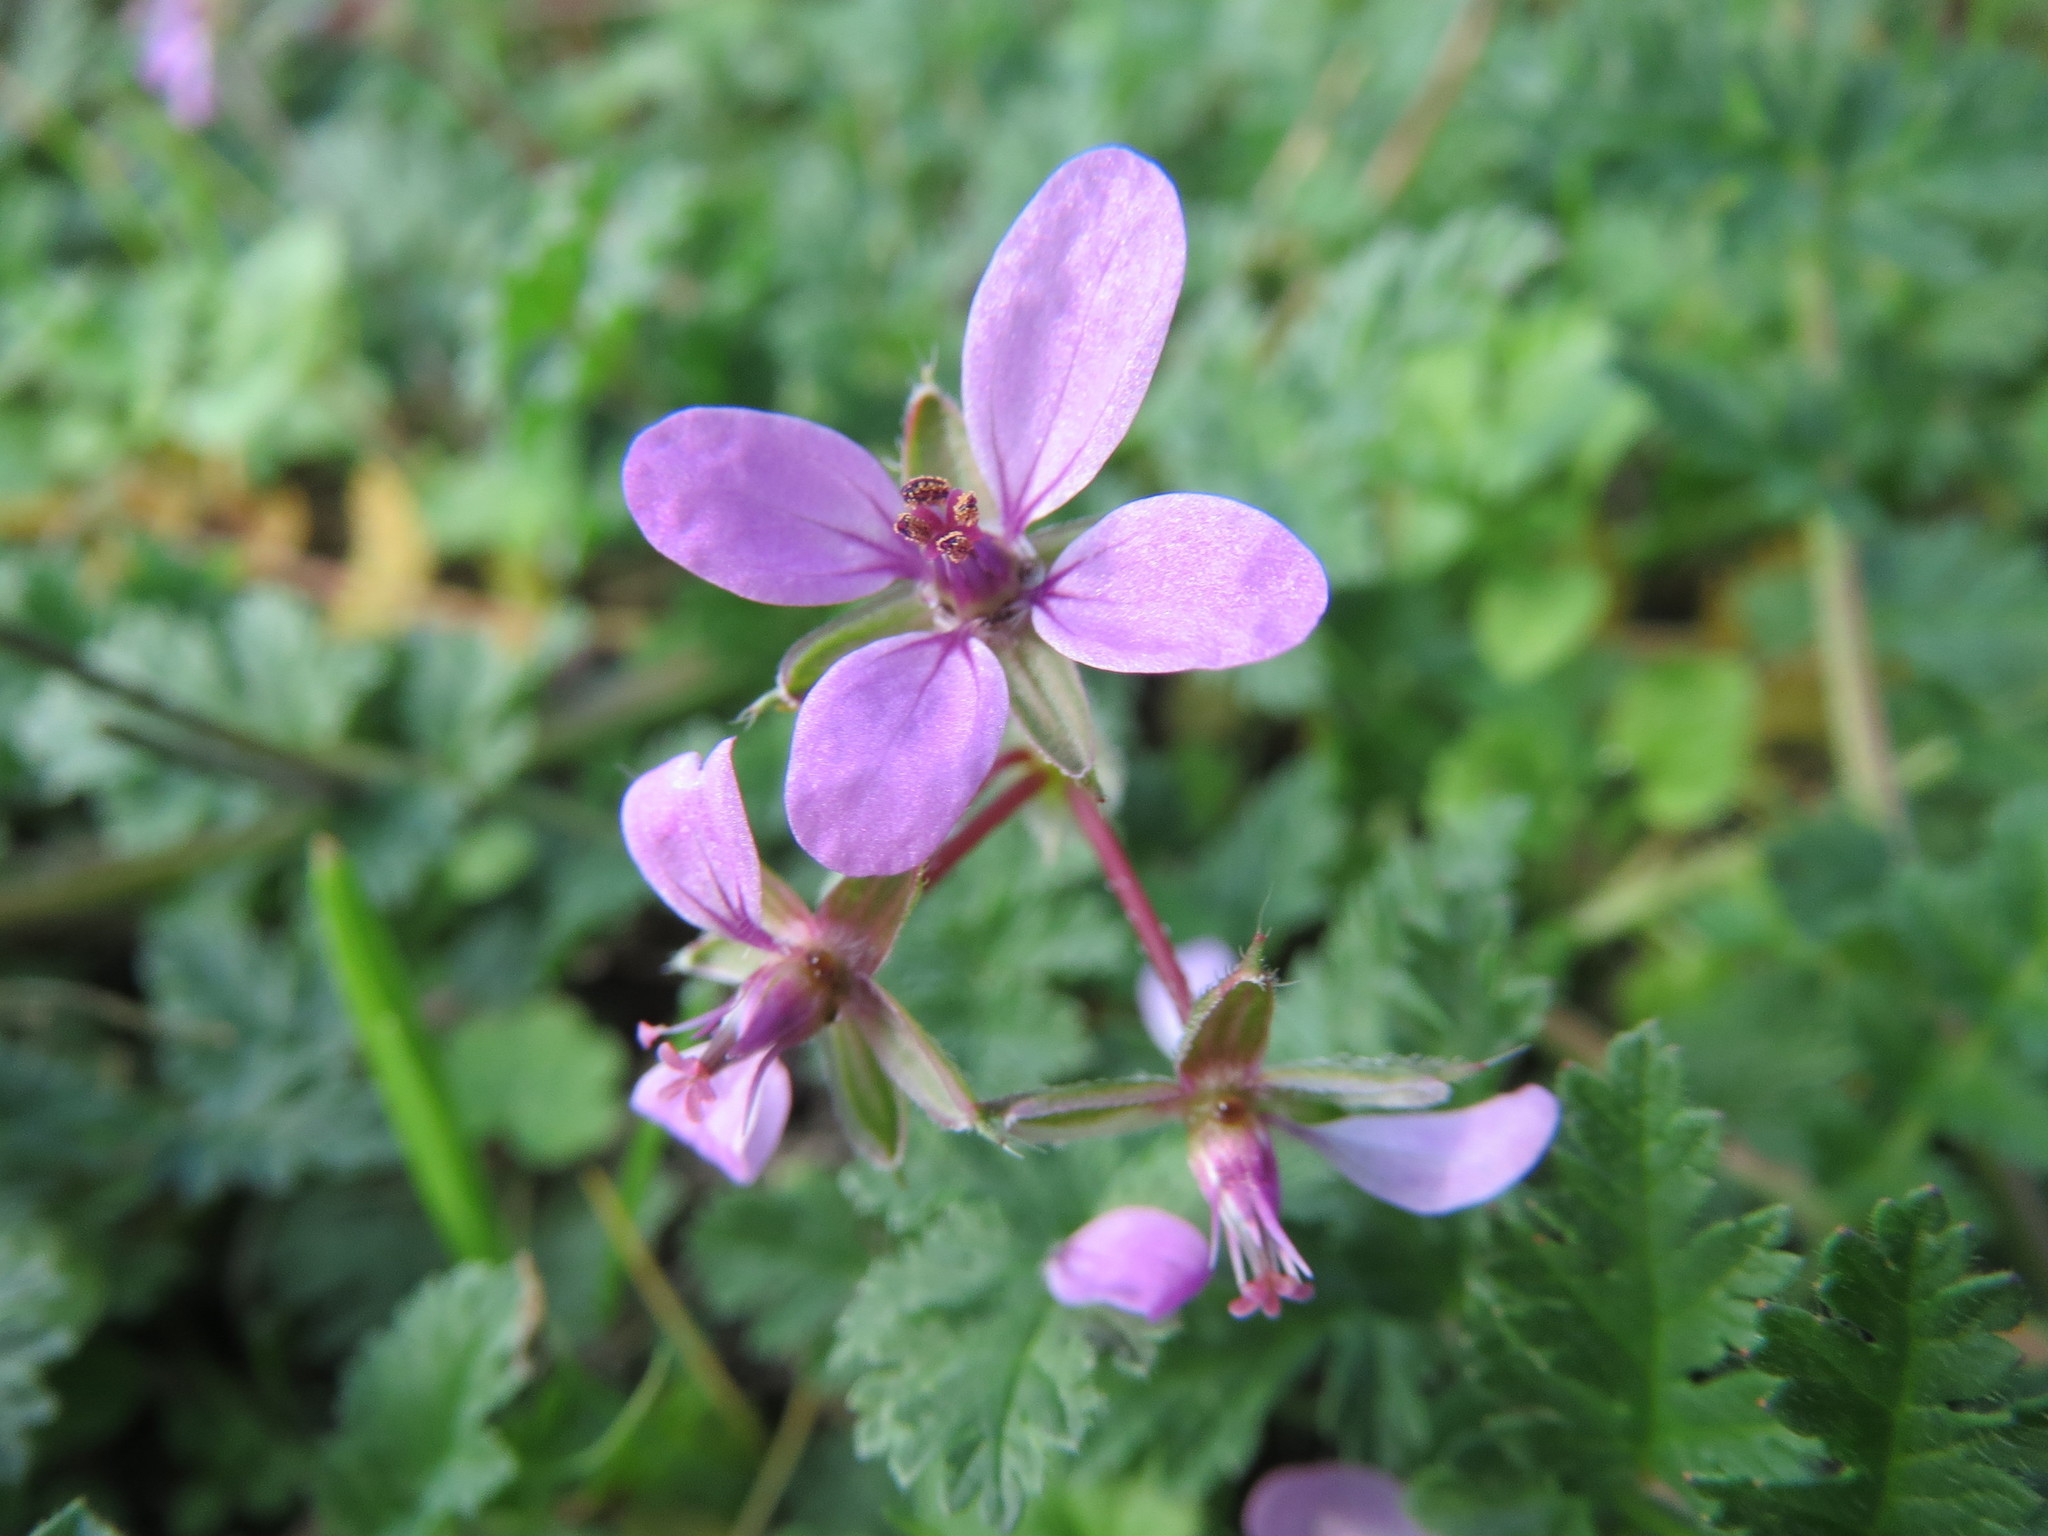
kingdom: Plantae
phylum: Tracheophyta
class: Magnoliopsida
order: Geraniales
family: Geraniaceae
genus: Erodium
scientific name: Erodium cicutarium
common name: Common stork's-bill
